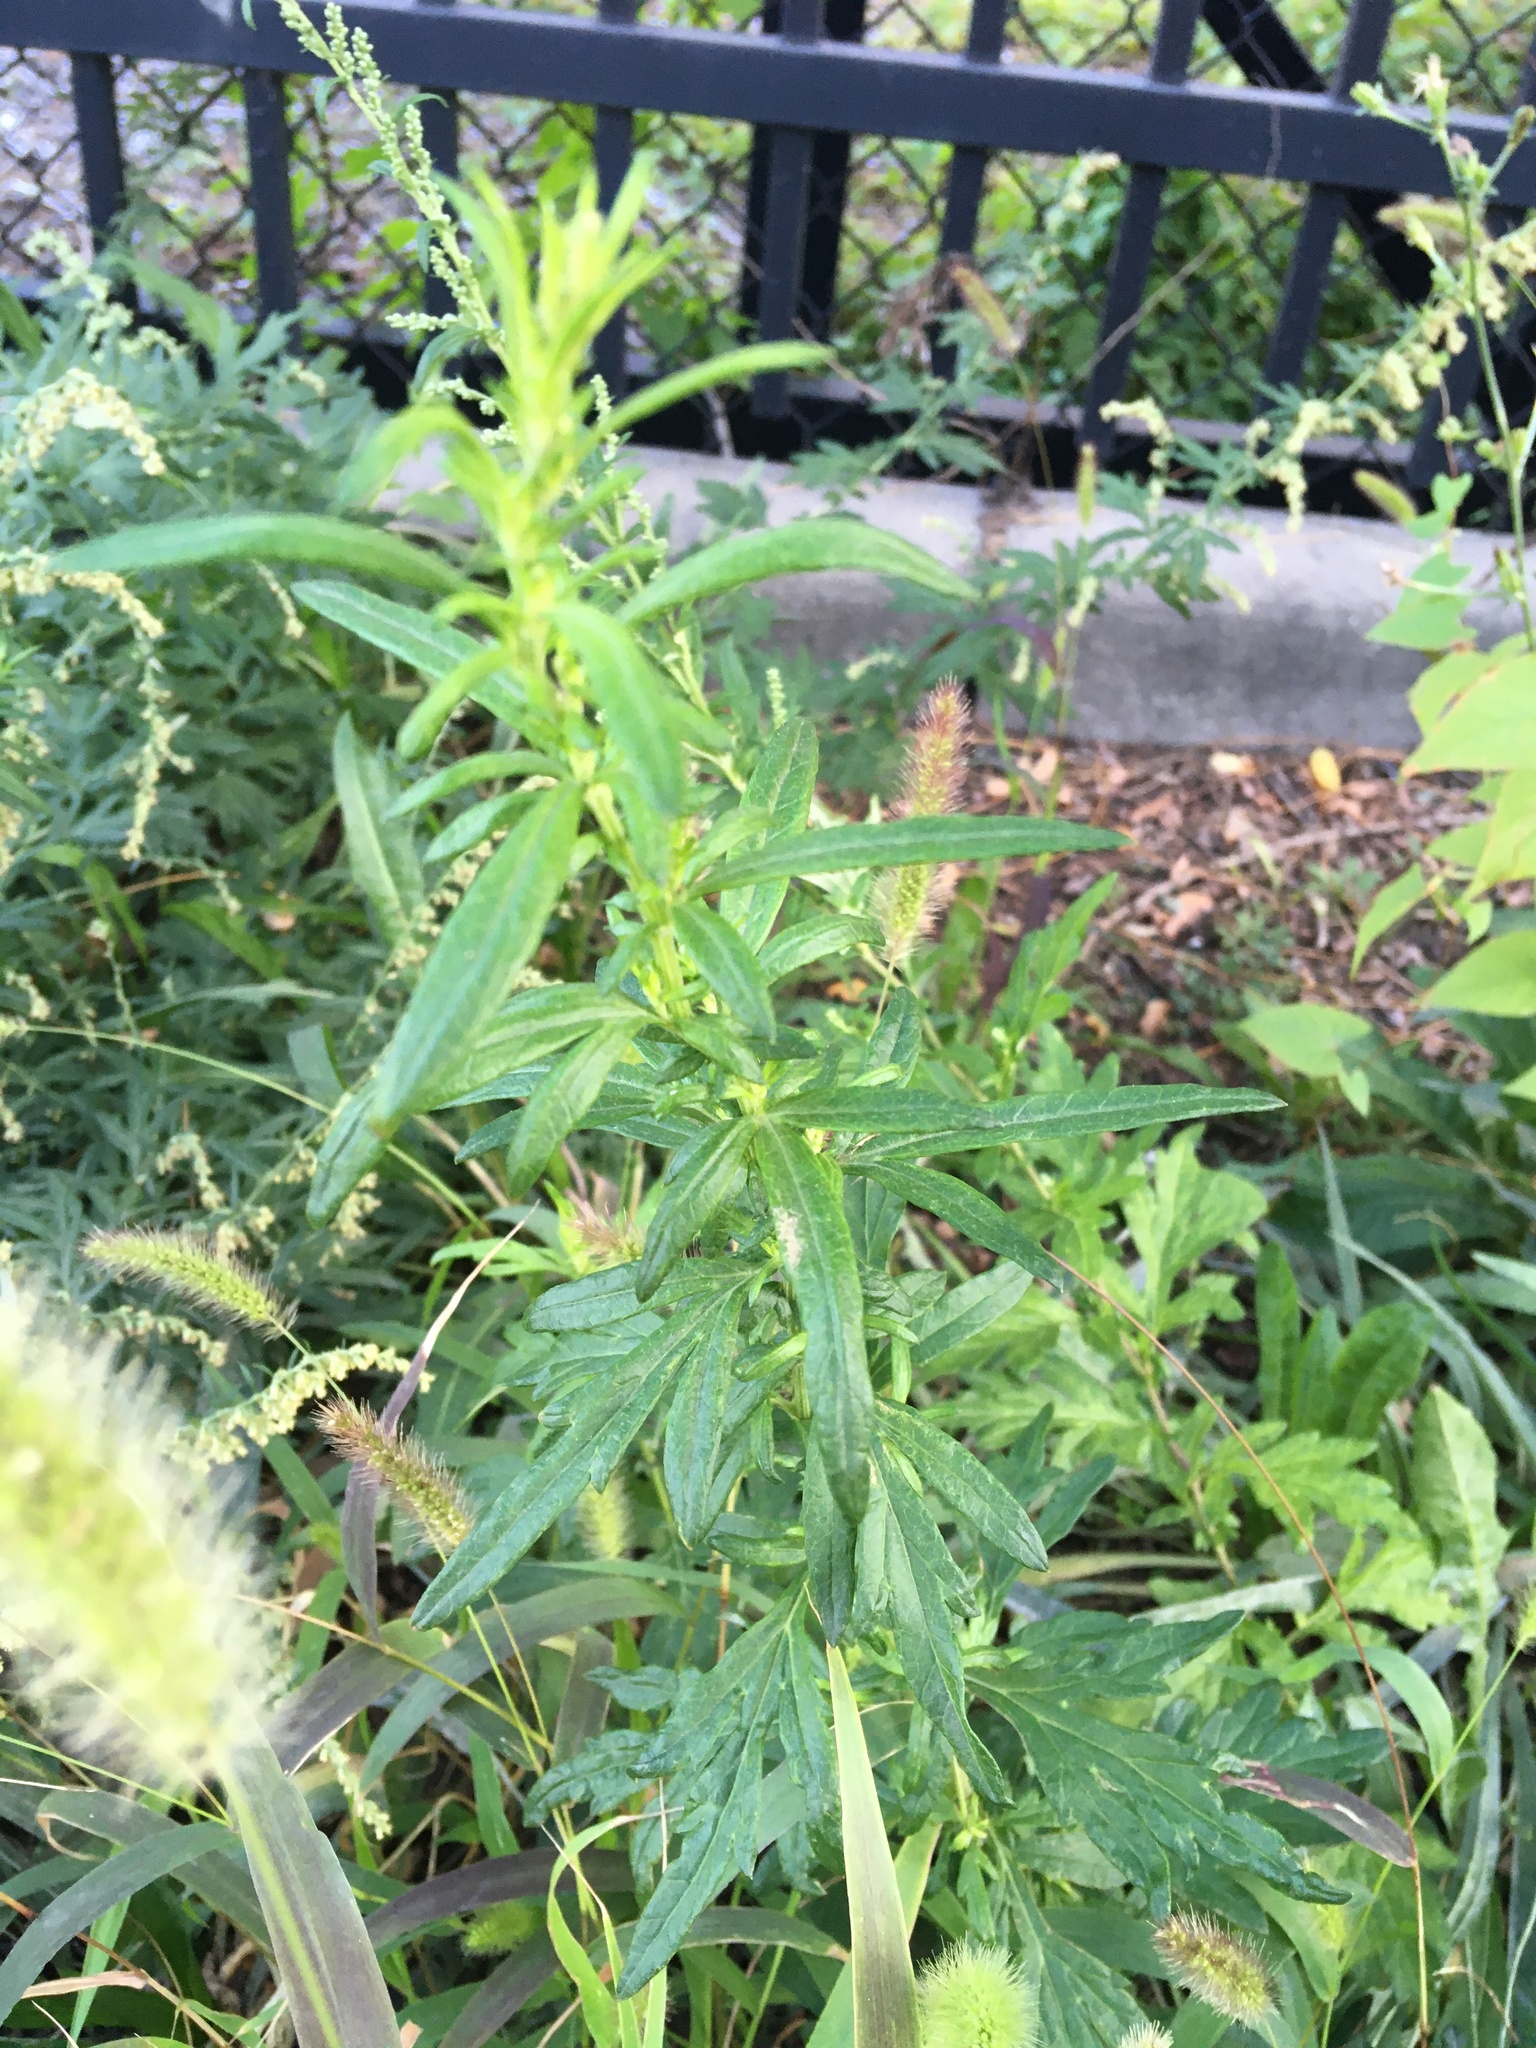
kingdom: Plantae
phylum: Tracheophyta
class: Magnoliopsida
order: Asterales
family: Asteraceae
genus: Artemisia
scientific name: Artemisia vulgaris
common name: Mugwort
